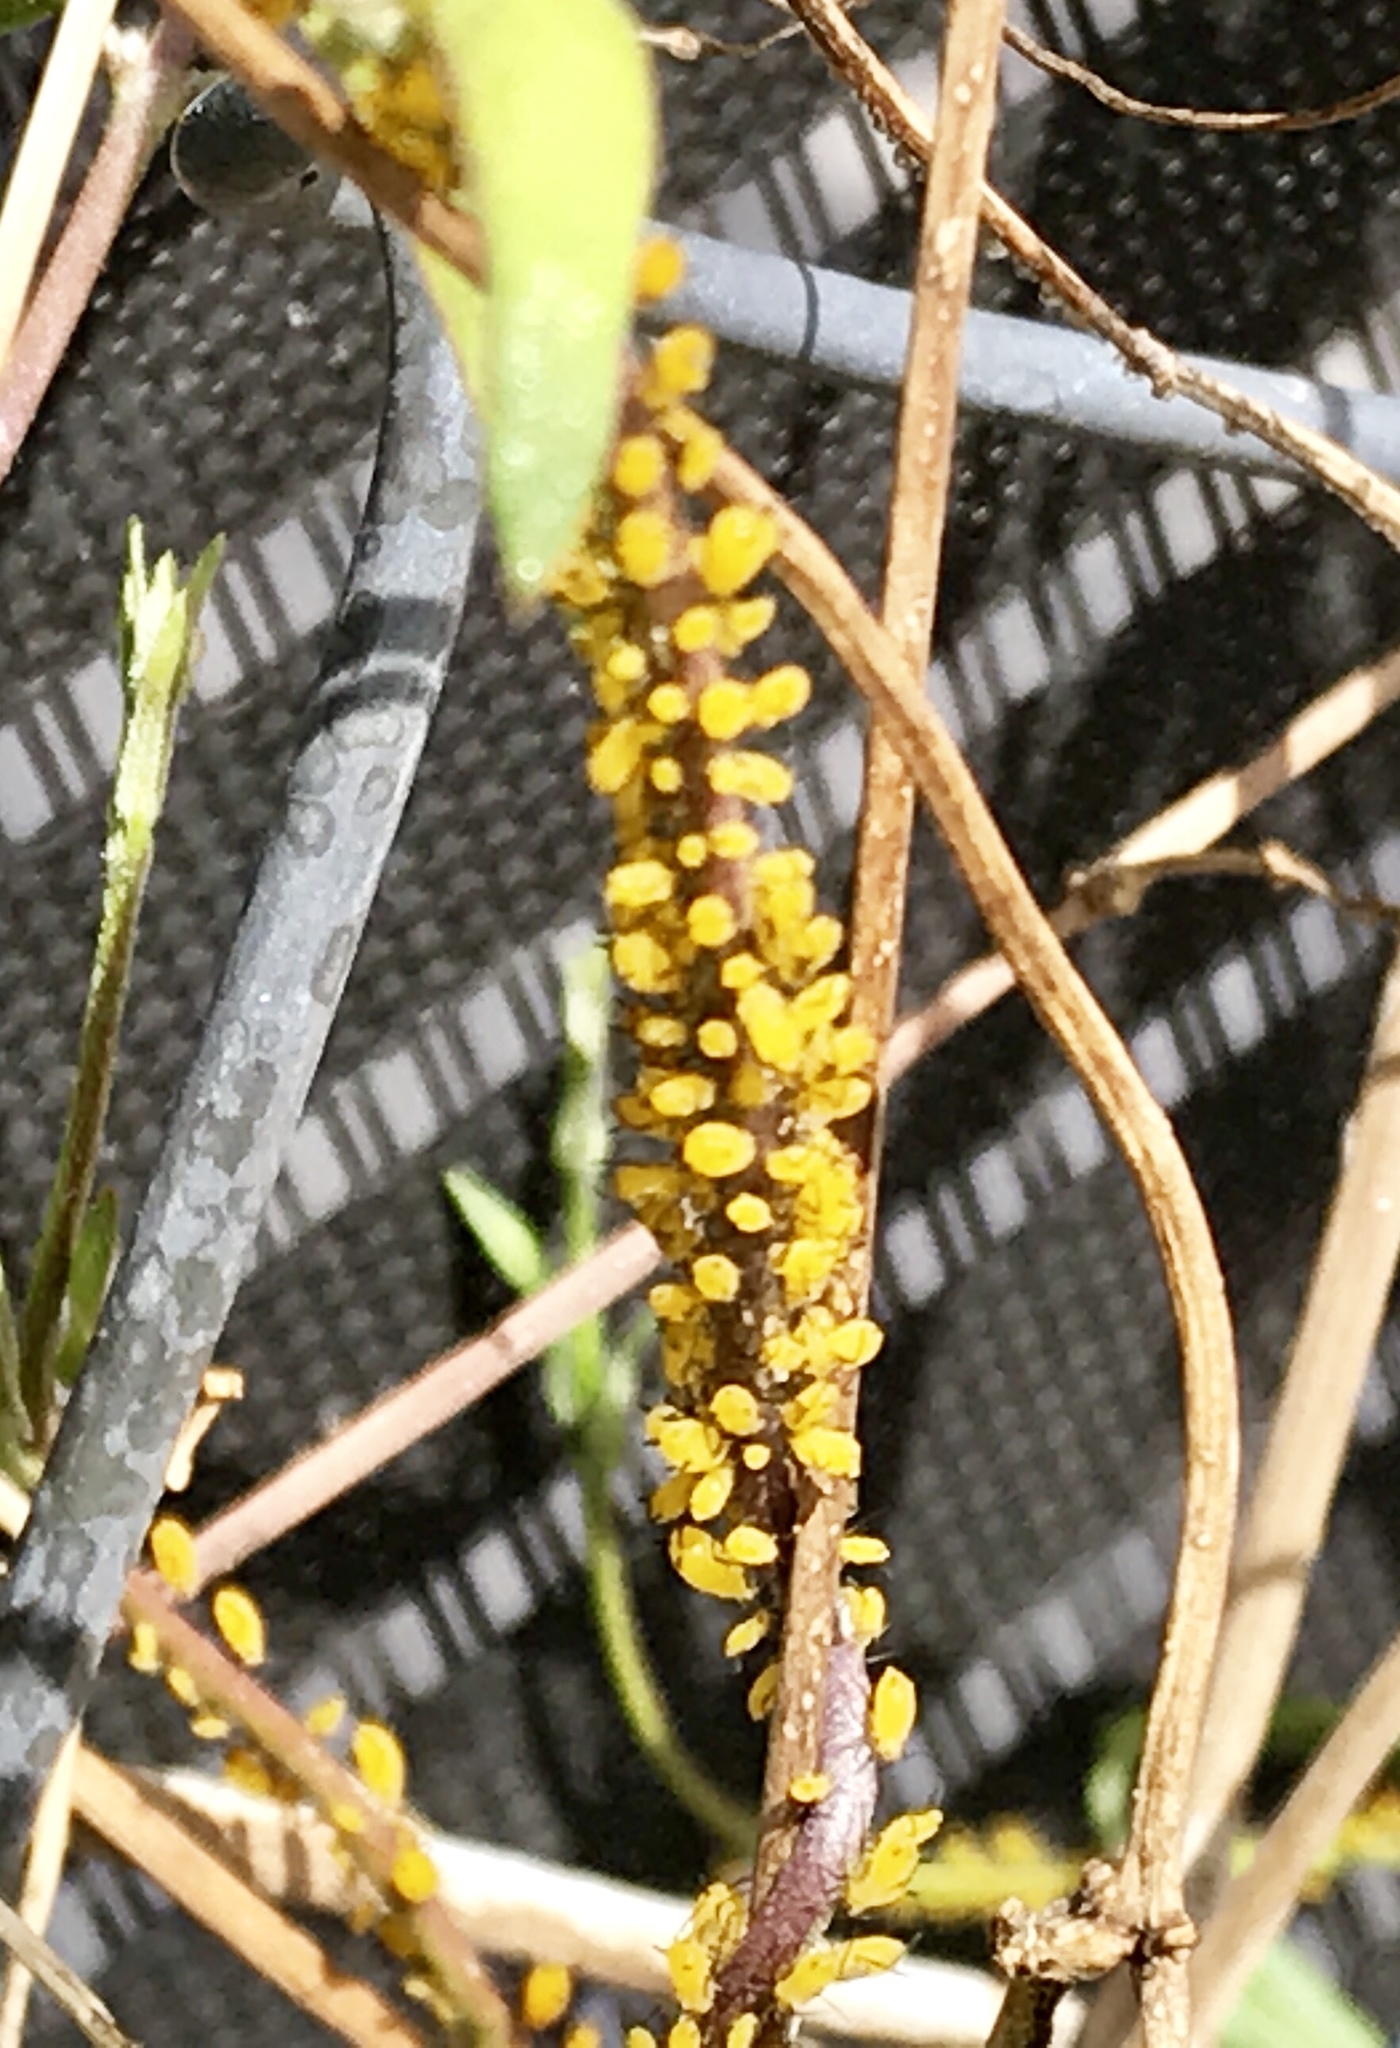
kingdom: Animalia
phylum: Arthropoda
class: Insecta
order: Hemiptera
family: Aphididae
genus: Aphis
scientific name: Aphis nerii
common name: Oleander aphid
